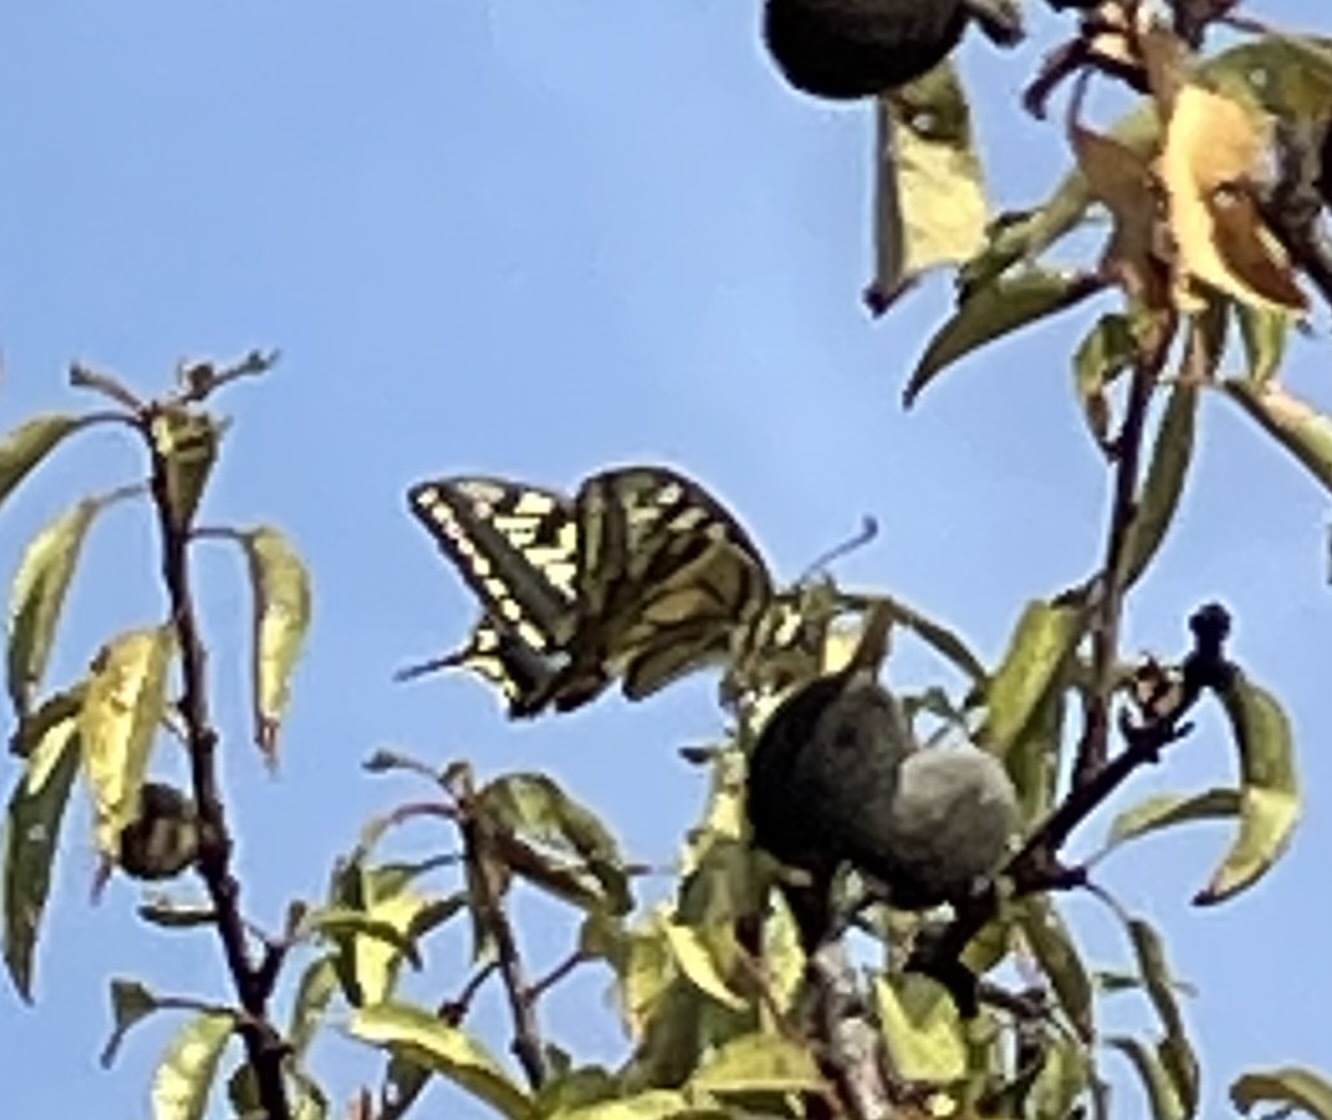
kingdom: Animalia
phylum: Arthropoda
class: Insecta
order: Lepidoptera
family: Papilionidae
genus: Papilio
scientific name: Papilio machaon
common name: Swallowtail
